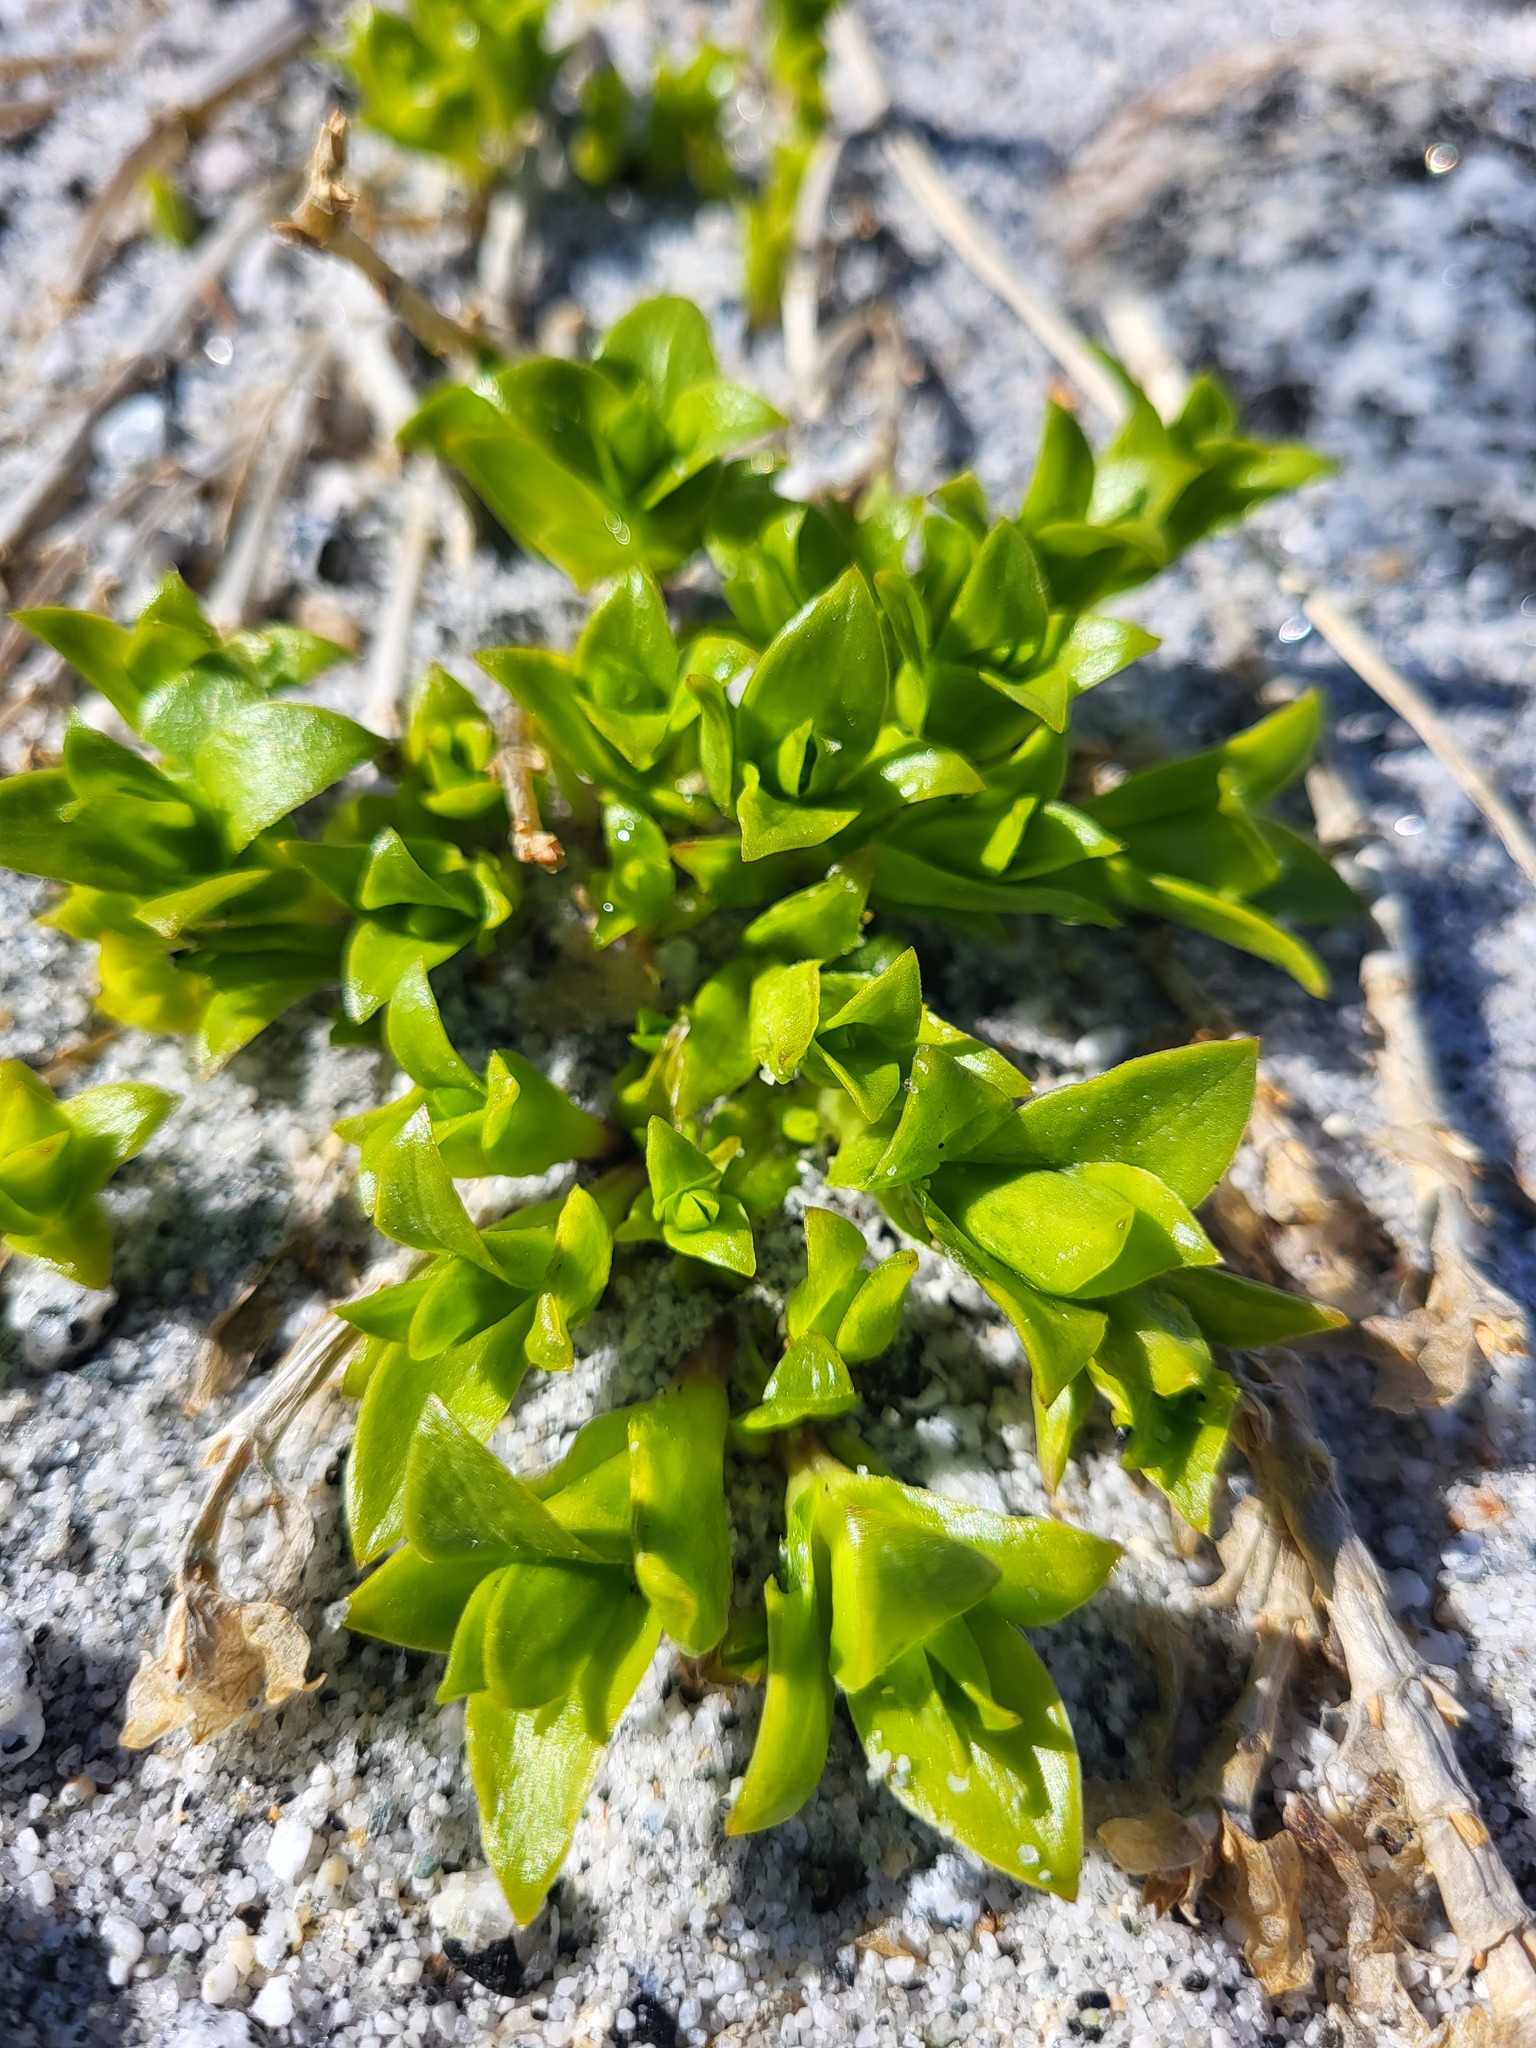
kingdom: Plantae
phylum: Tracheophyta
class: Magnoliopsida
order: Caryophyllales
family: Caryophyllaceae
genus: Honckenya
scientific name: Honckenya peploides
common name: Sea sandwort
